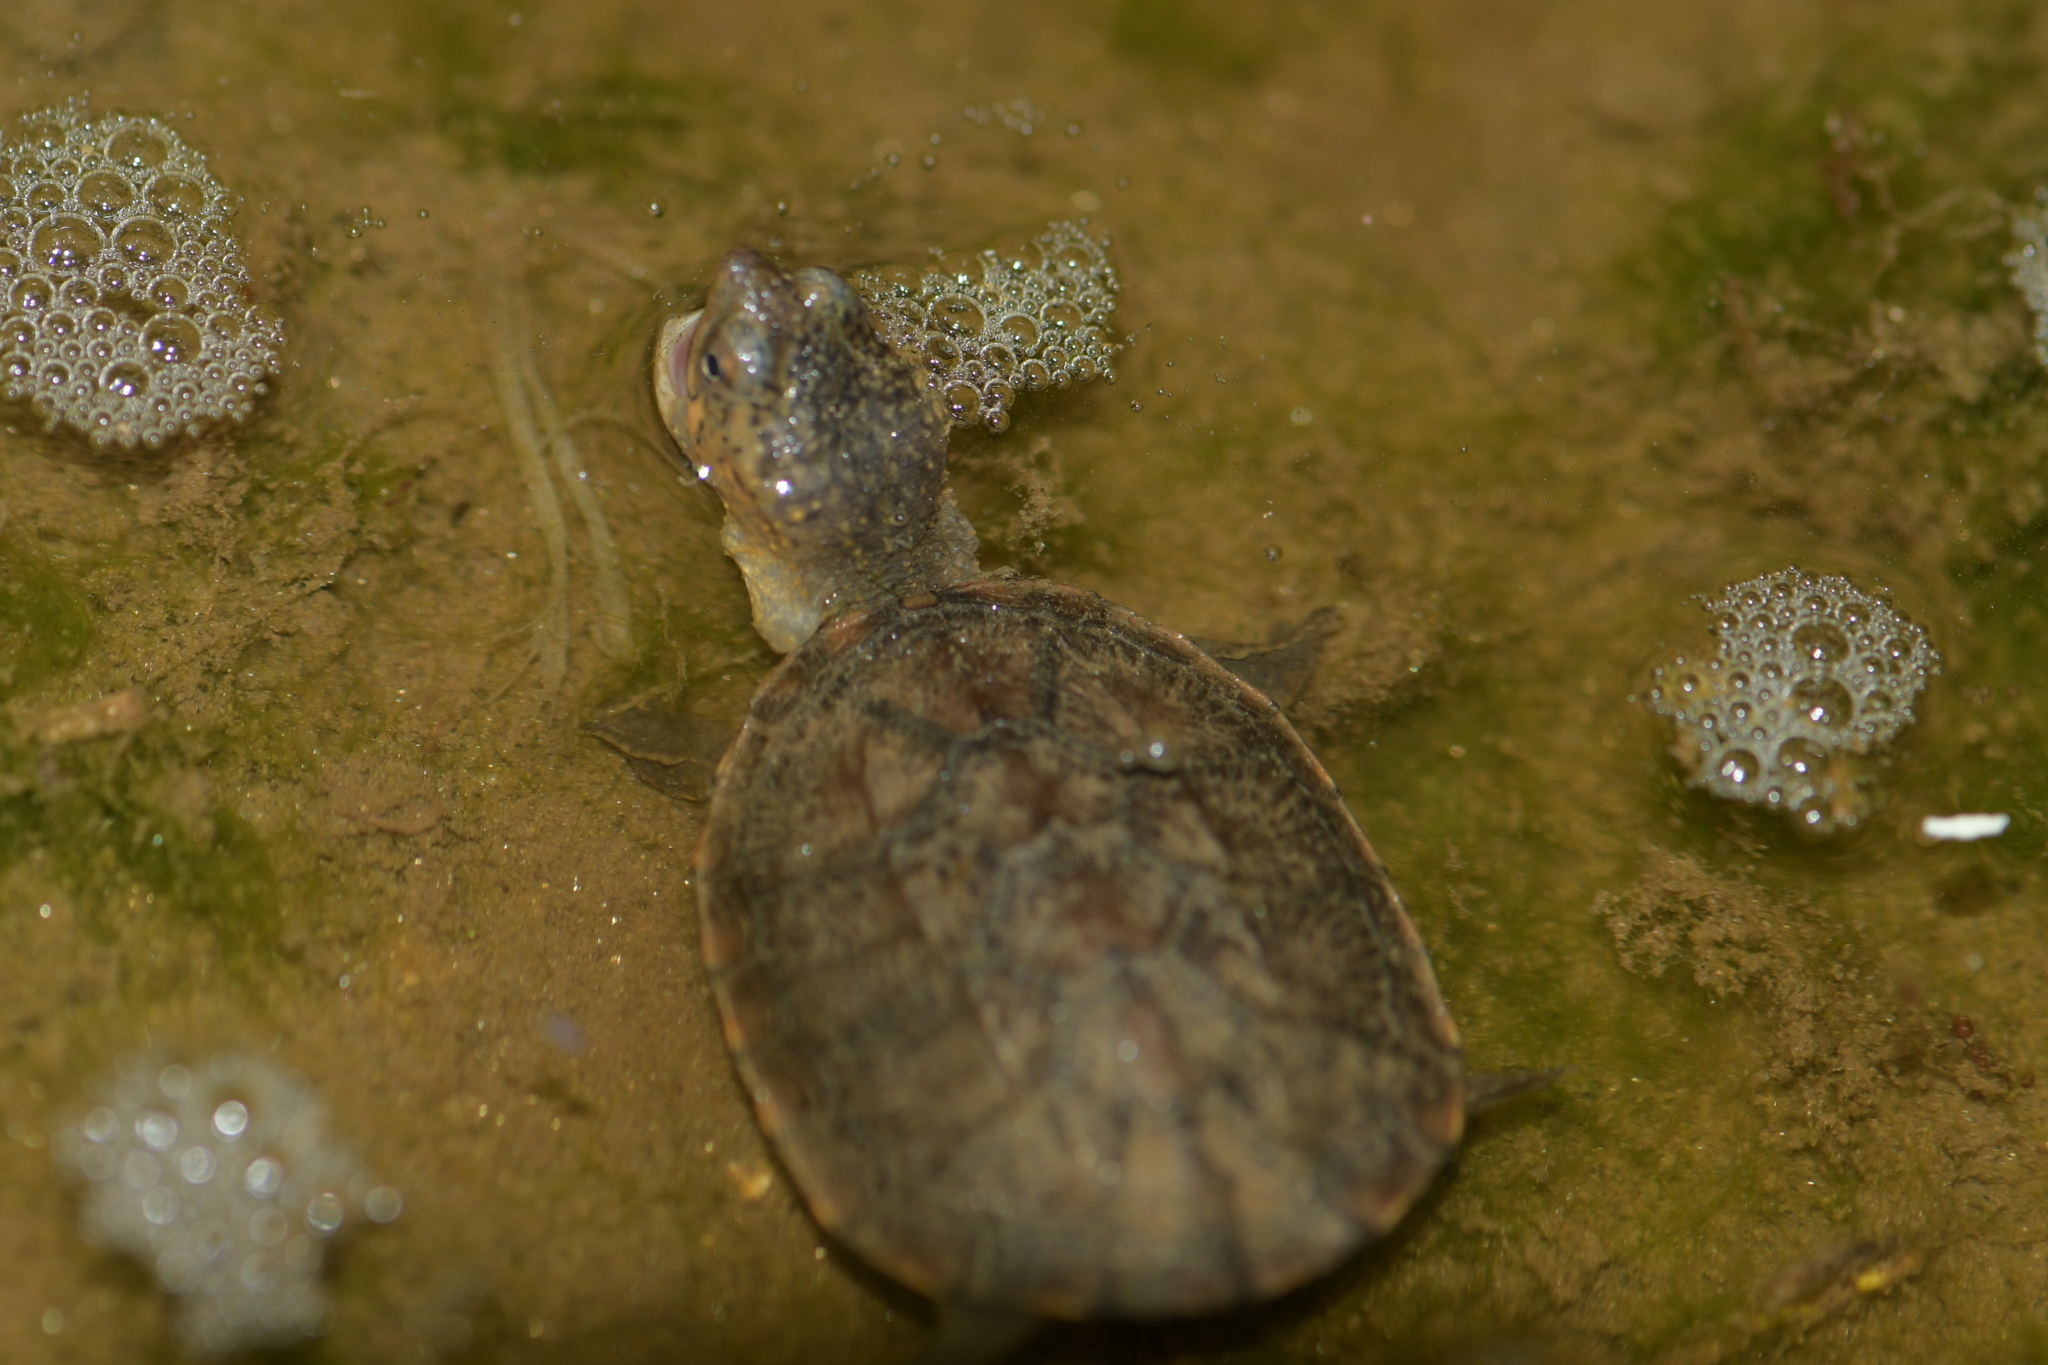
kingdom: Animalia
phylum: Chordata
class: Testudines
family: Kinosternidae
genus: Kinosternon
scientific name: Kinosternon oaxacae
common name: Oaxaca mud turtle
